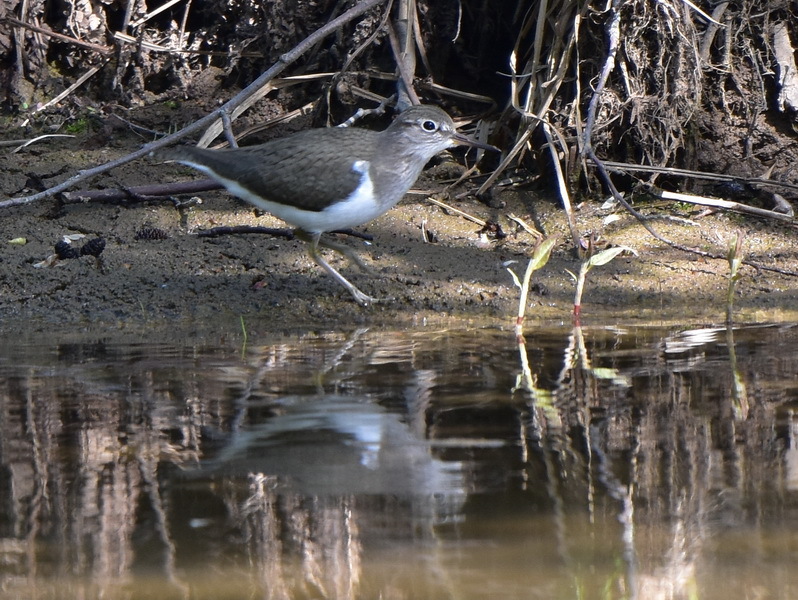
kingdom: Animalia
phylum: Chordata
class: Aves
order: Charadriiformes
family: Scolopacidae
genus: Actitis
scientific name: Actitis hypoleucos
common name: Common sandpiper
